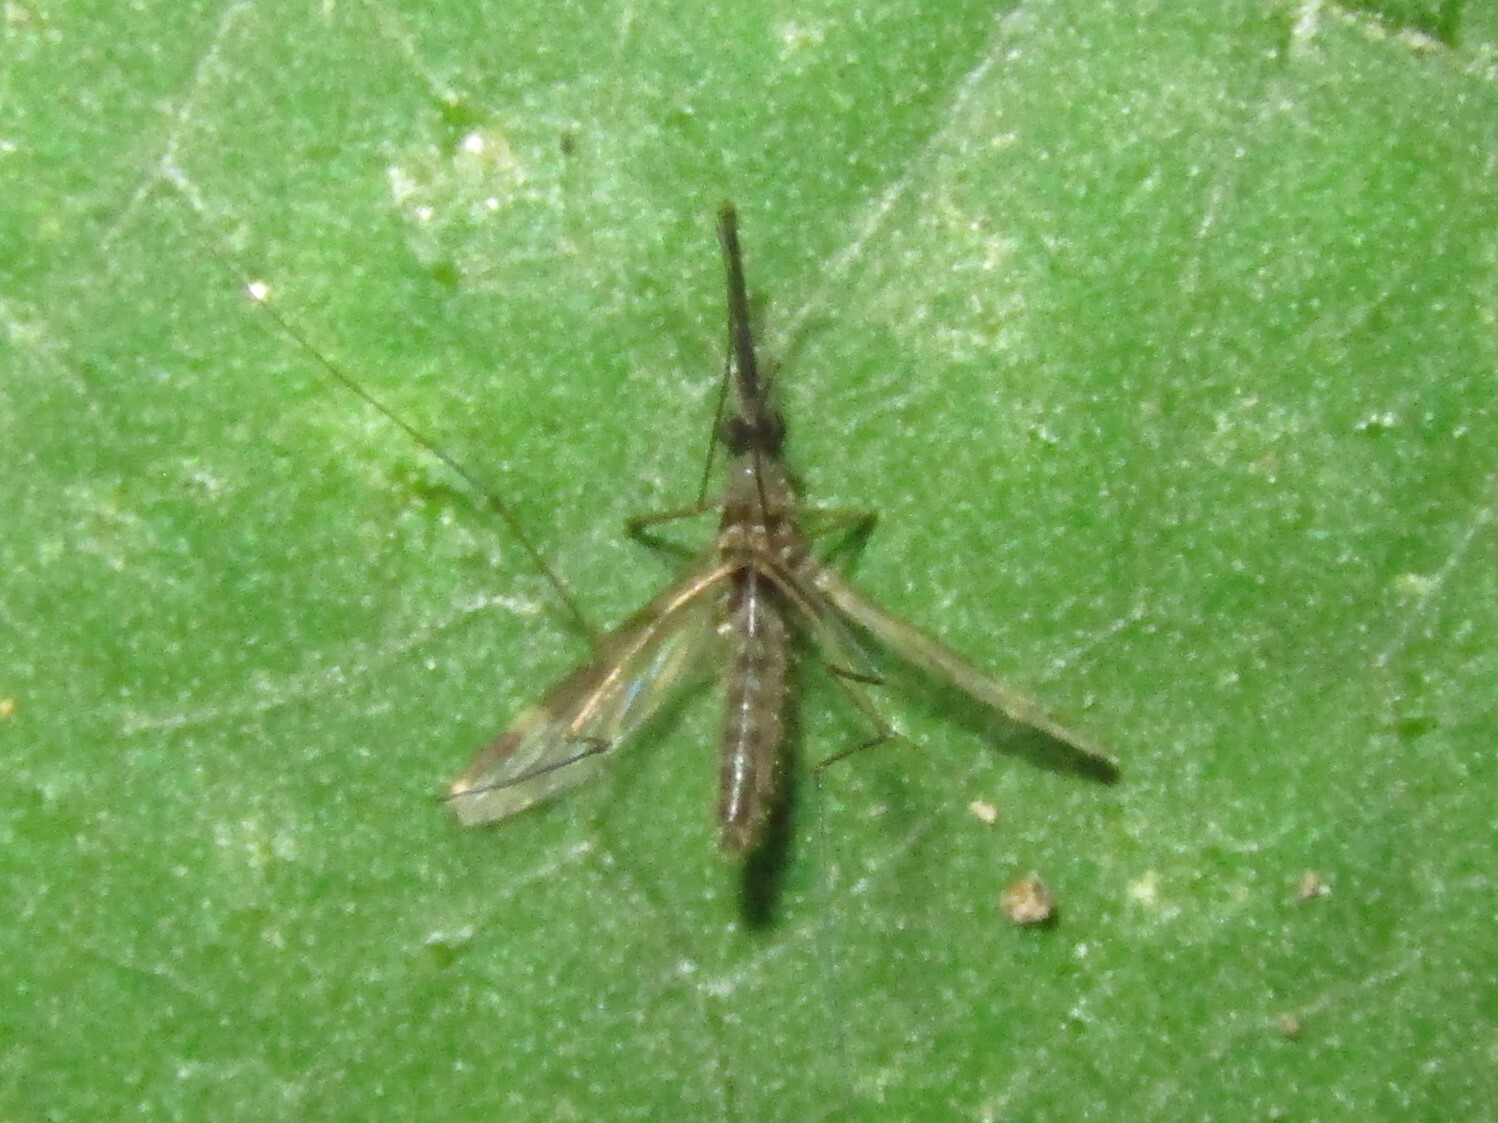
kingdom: Animalia
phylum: Arthropoda
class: Insecta
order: Diptera
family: Culicidae
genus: Anopheles
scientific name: Anopheles punctipennis
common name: Woodland malaria mosquito
